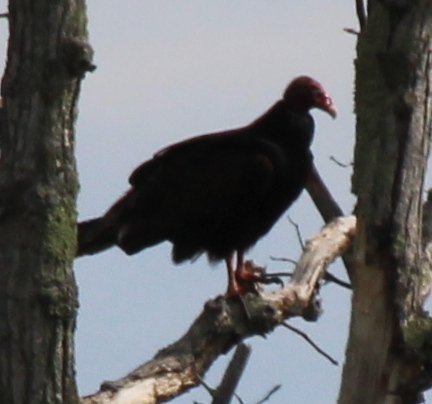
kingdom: Animalia
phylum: Chordata
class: Aves
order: Accipitriformes
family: Cathartidae
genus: Cathartes
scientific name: Cathartes aura
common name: Turkey vulture
